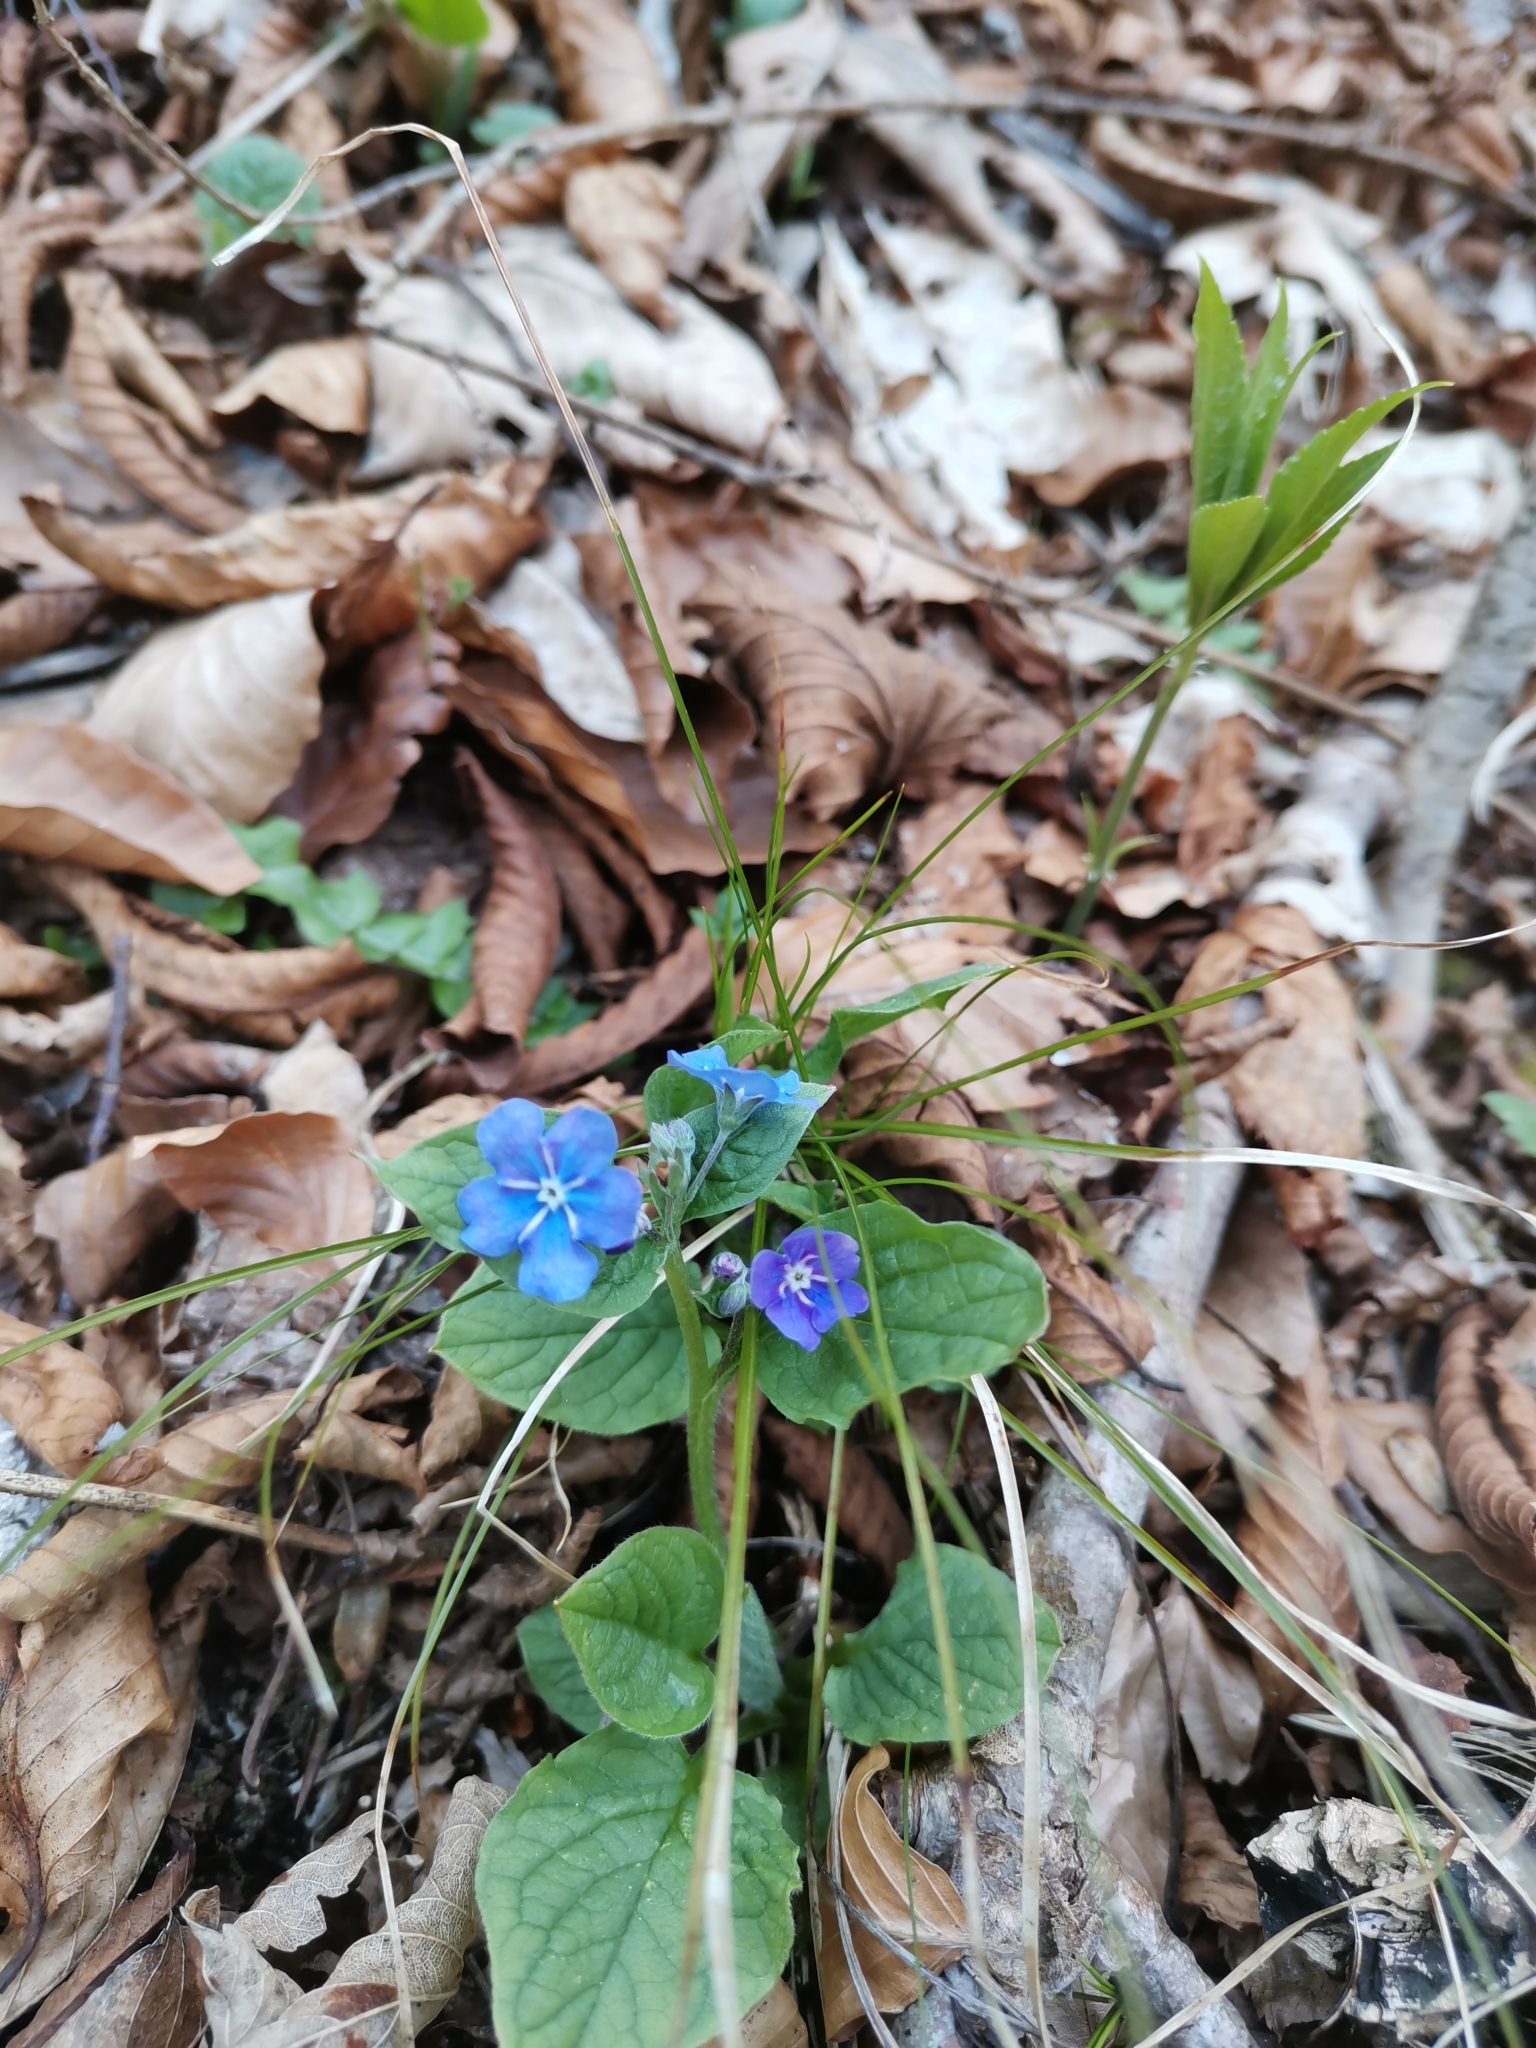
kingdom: Plantae
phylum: Tracheophyta
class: Magnoliopsida
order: Boraginales
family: Boraginaceae
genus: Omphalodes
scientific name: Omphalodes verna
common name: Blue-eyed-mary
